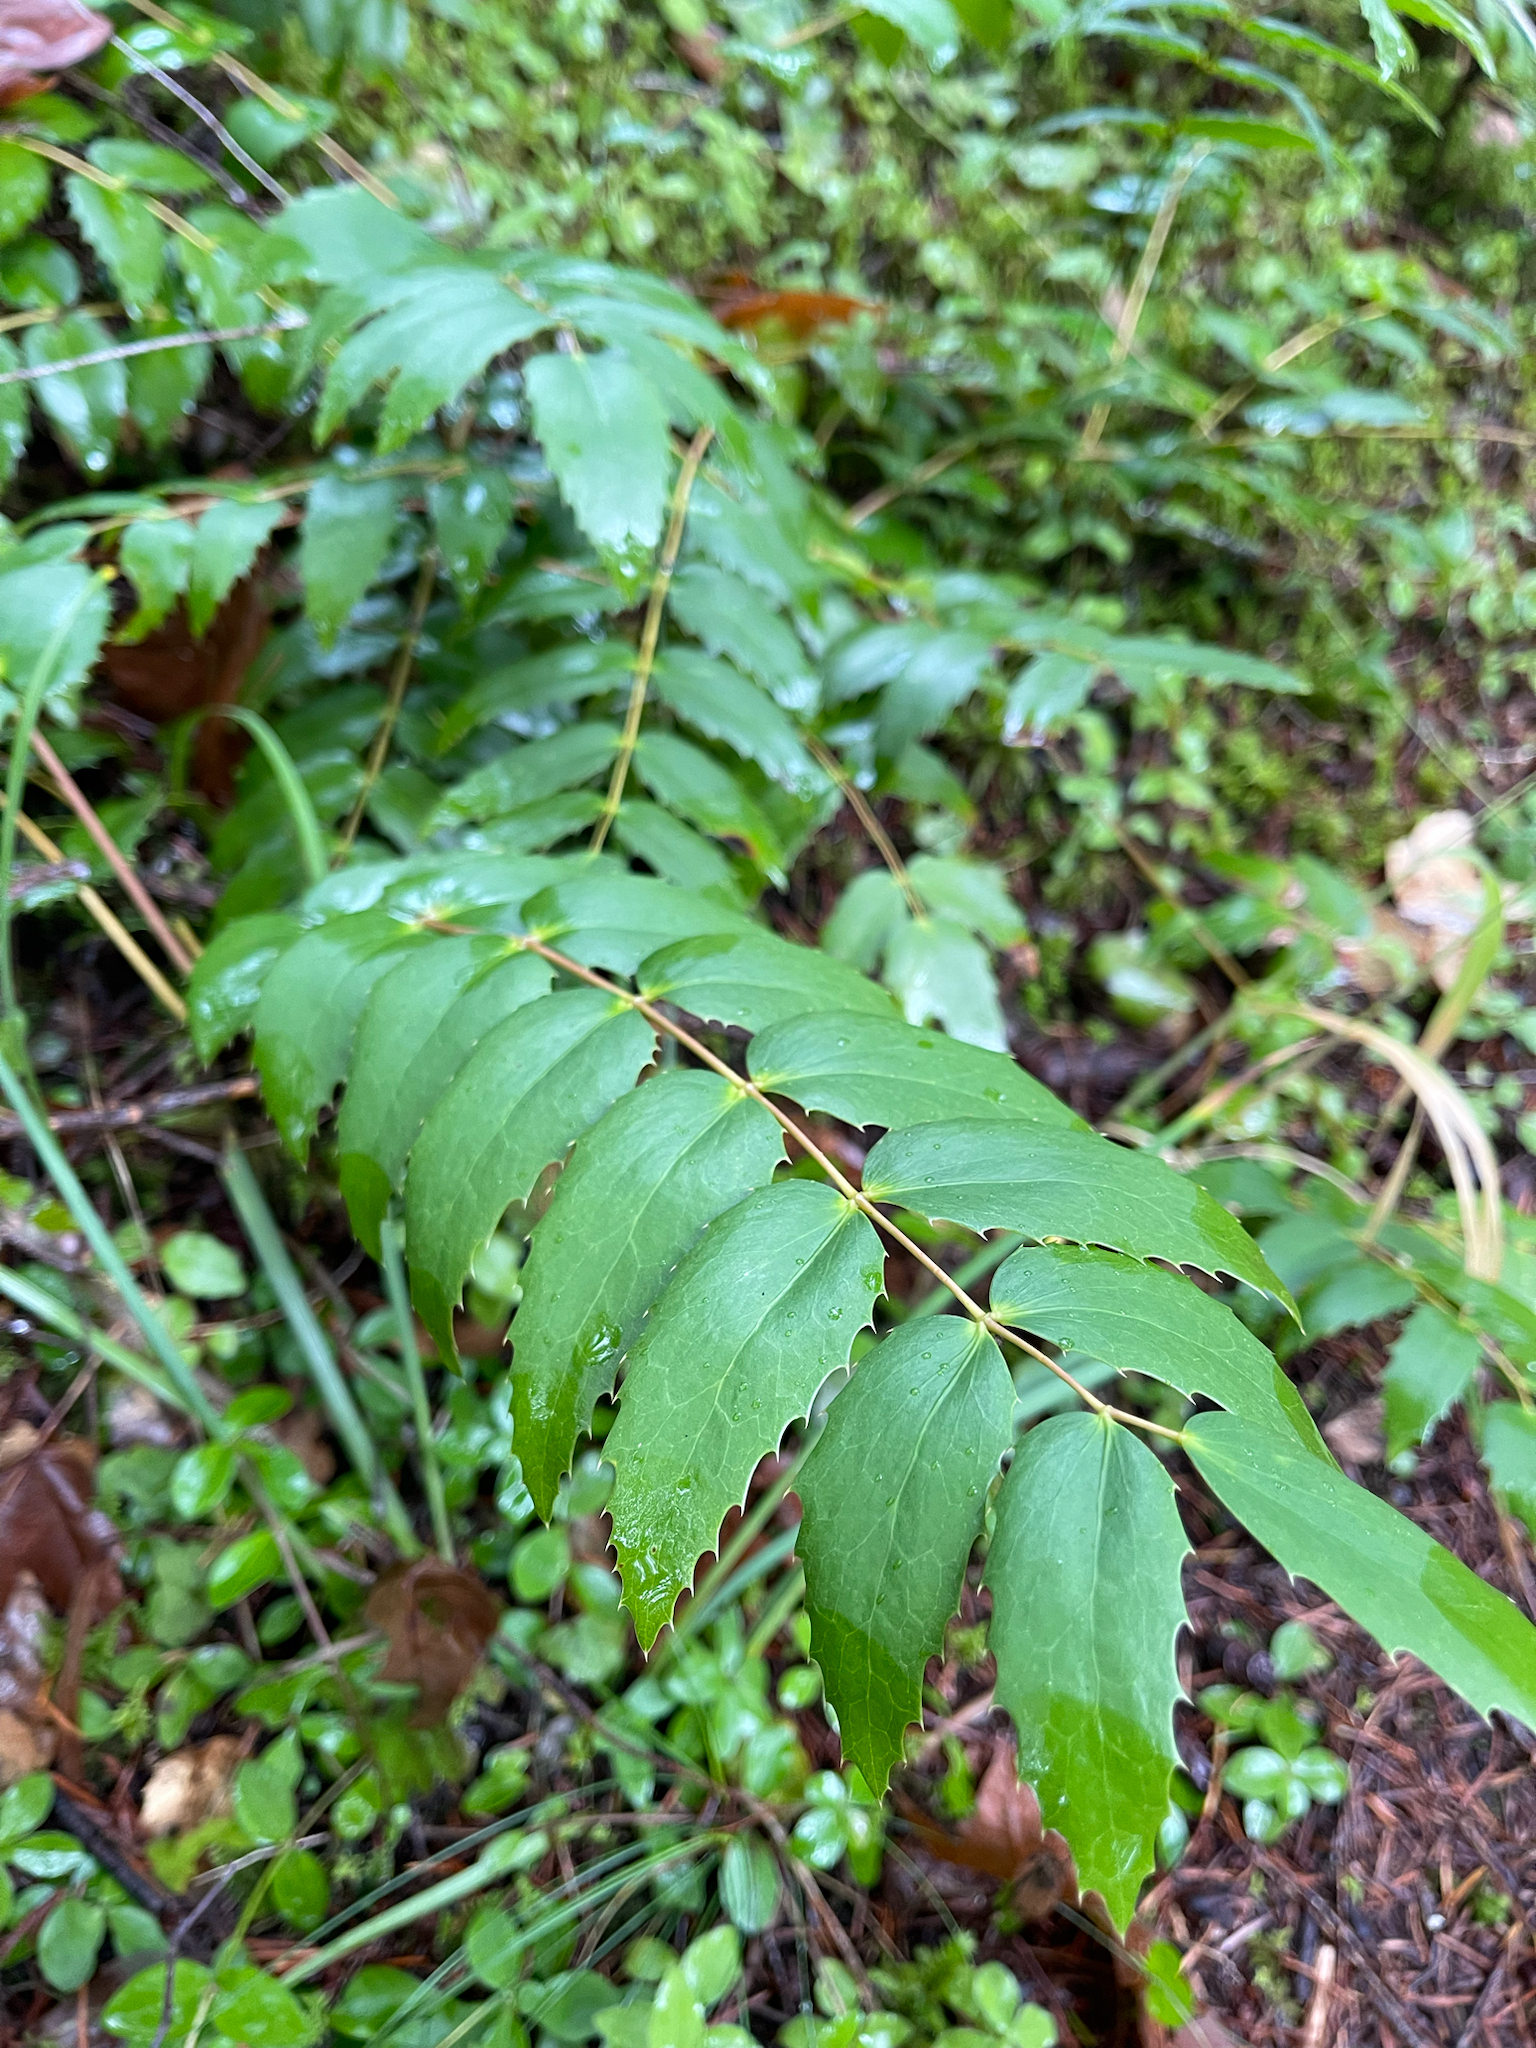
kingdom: Plantae
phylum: Tracheophyta
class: Magnoliopsida
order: Ranunculales
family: Berberidaceae
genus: Mahonia
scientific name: Mahonia nervosa
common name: Cascade oregon-grape
